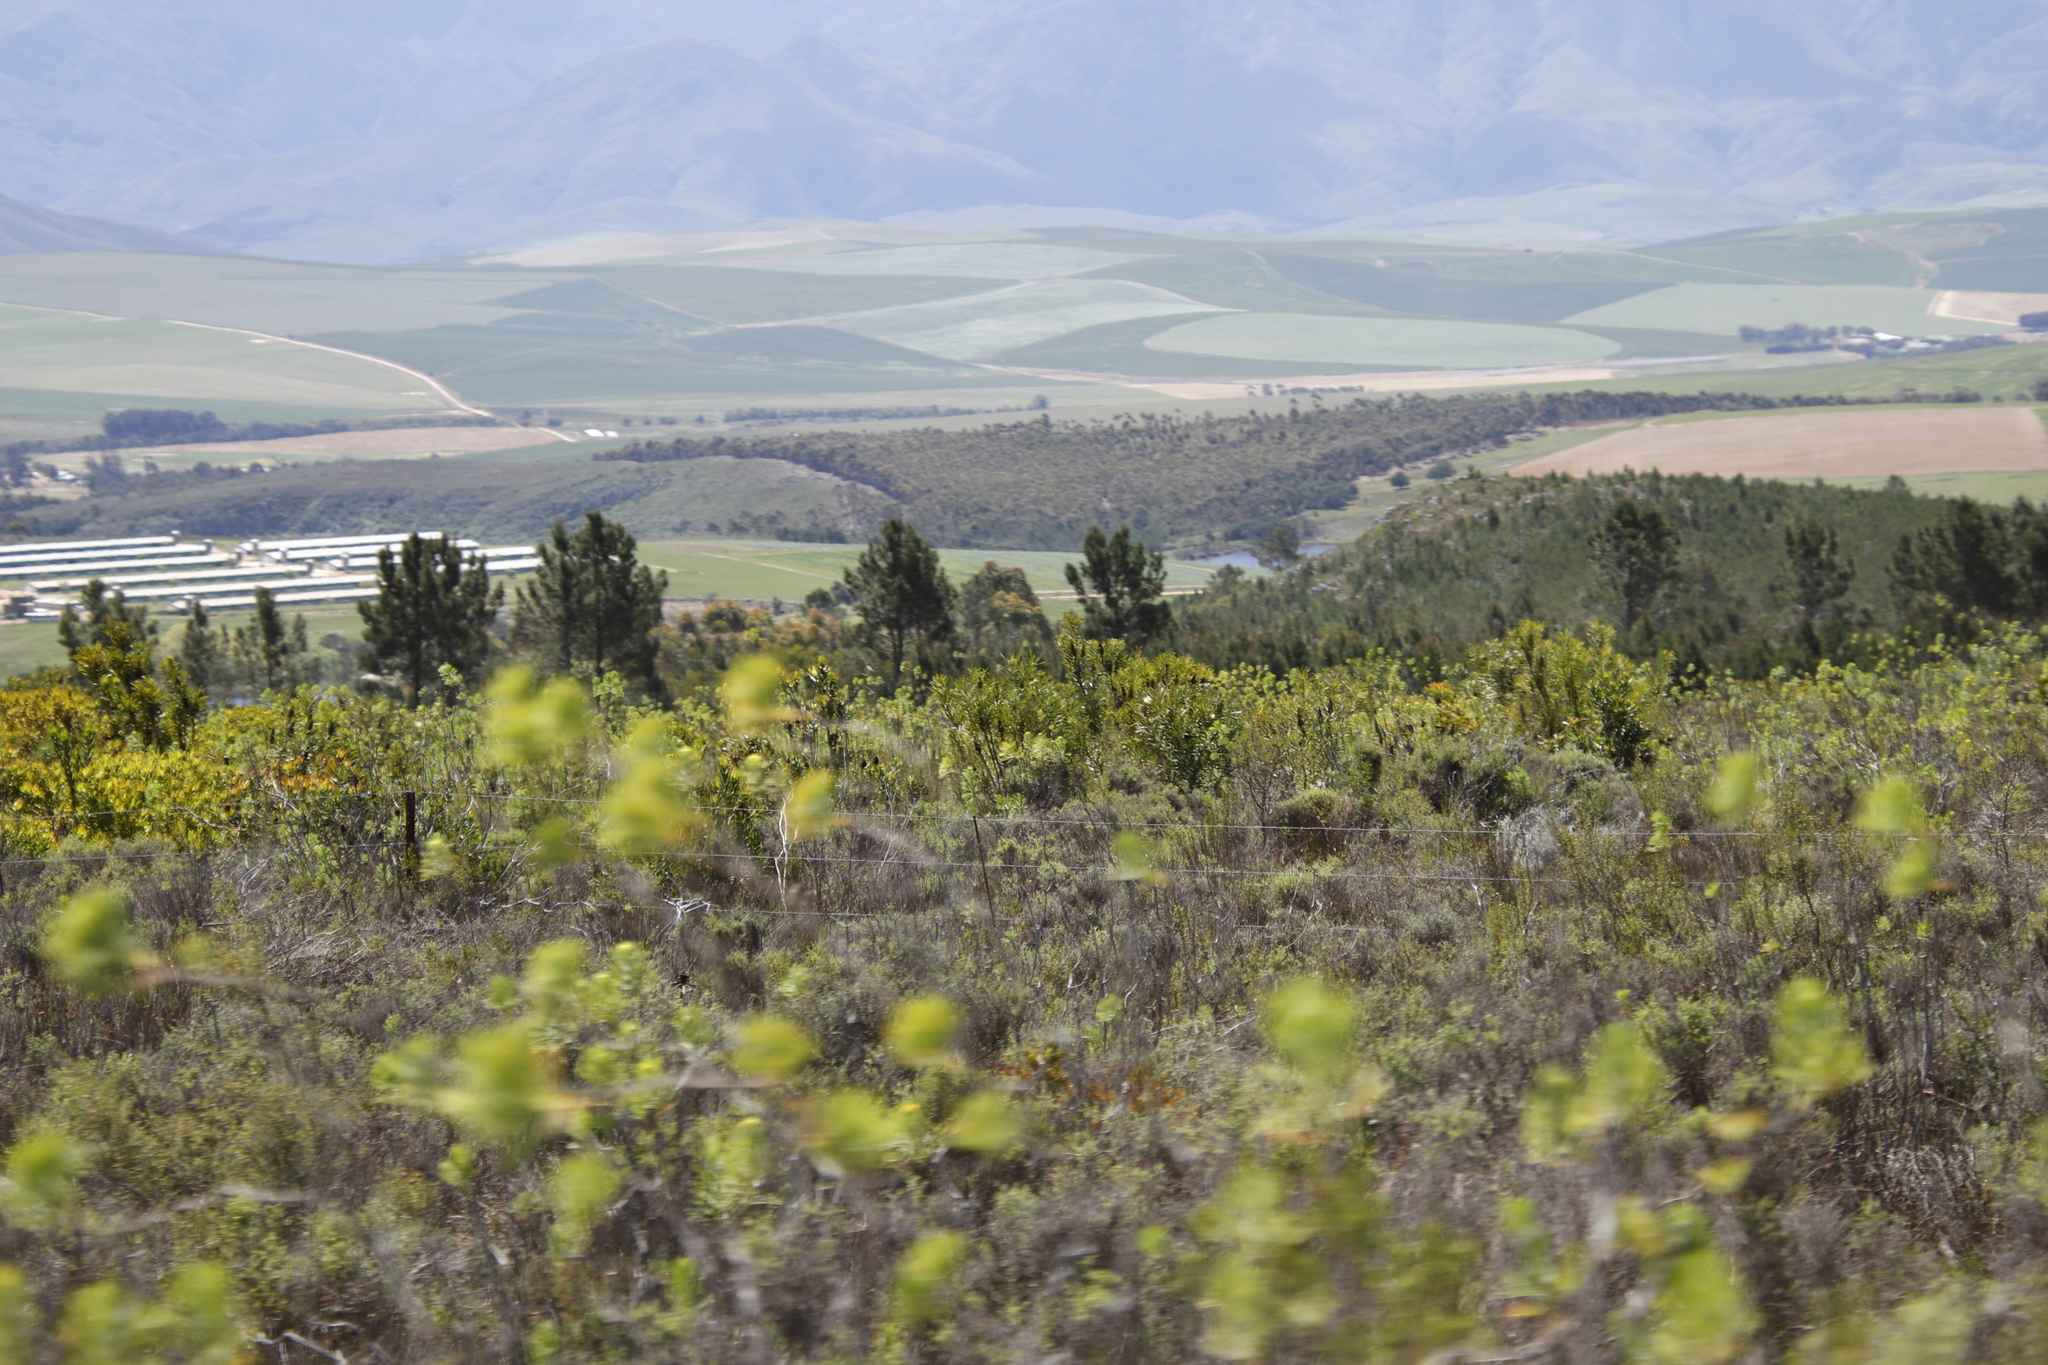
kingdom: Plantae
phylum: Tracheophyta
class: Magnoliopsida
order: Proteales
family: Proteaceae
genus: Protea
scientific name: Protea repens
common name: Sugarbush
